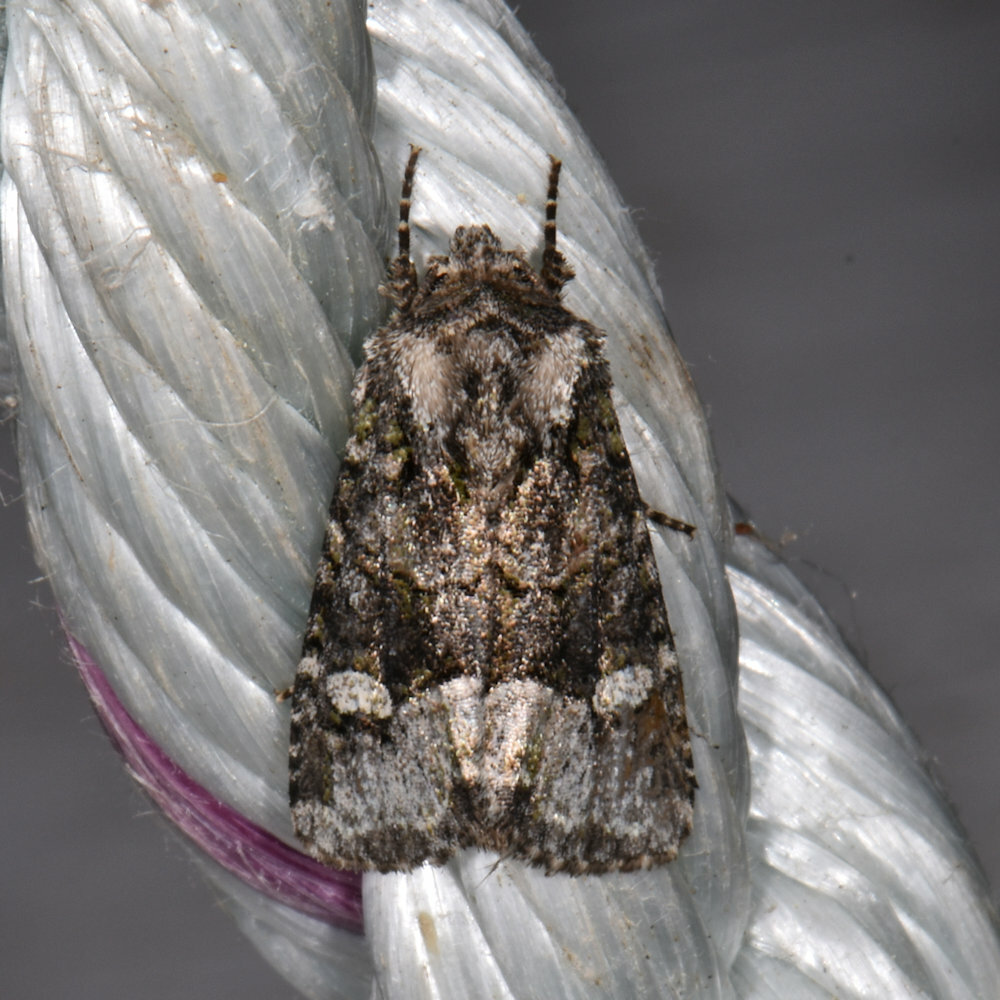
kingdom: Animalia
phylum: Arthropoda
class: Insecta
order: Lepidoptera
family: Noctuidae
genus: Lacinipolia
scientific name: Lacinipolia olivacea
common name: Olive arches moth
